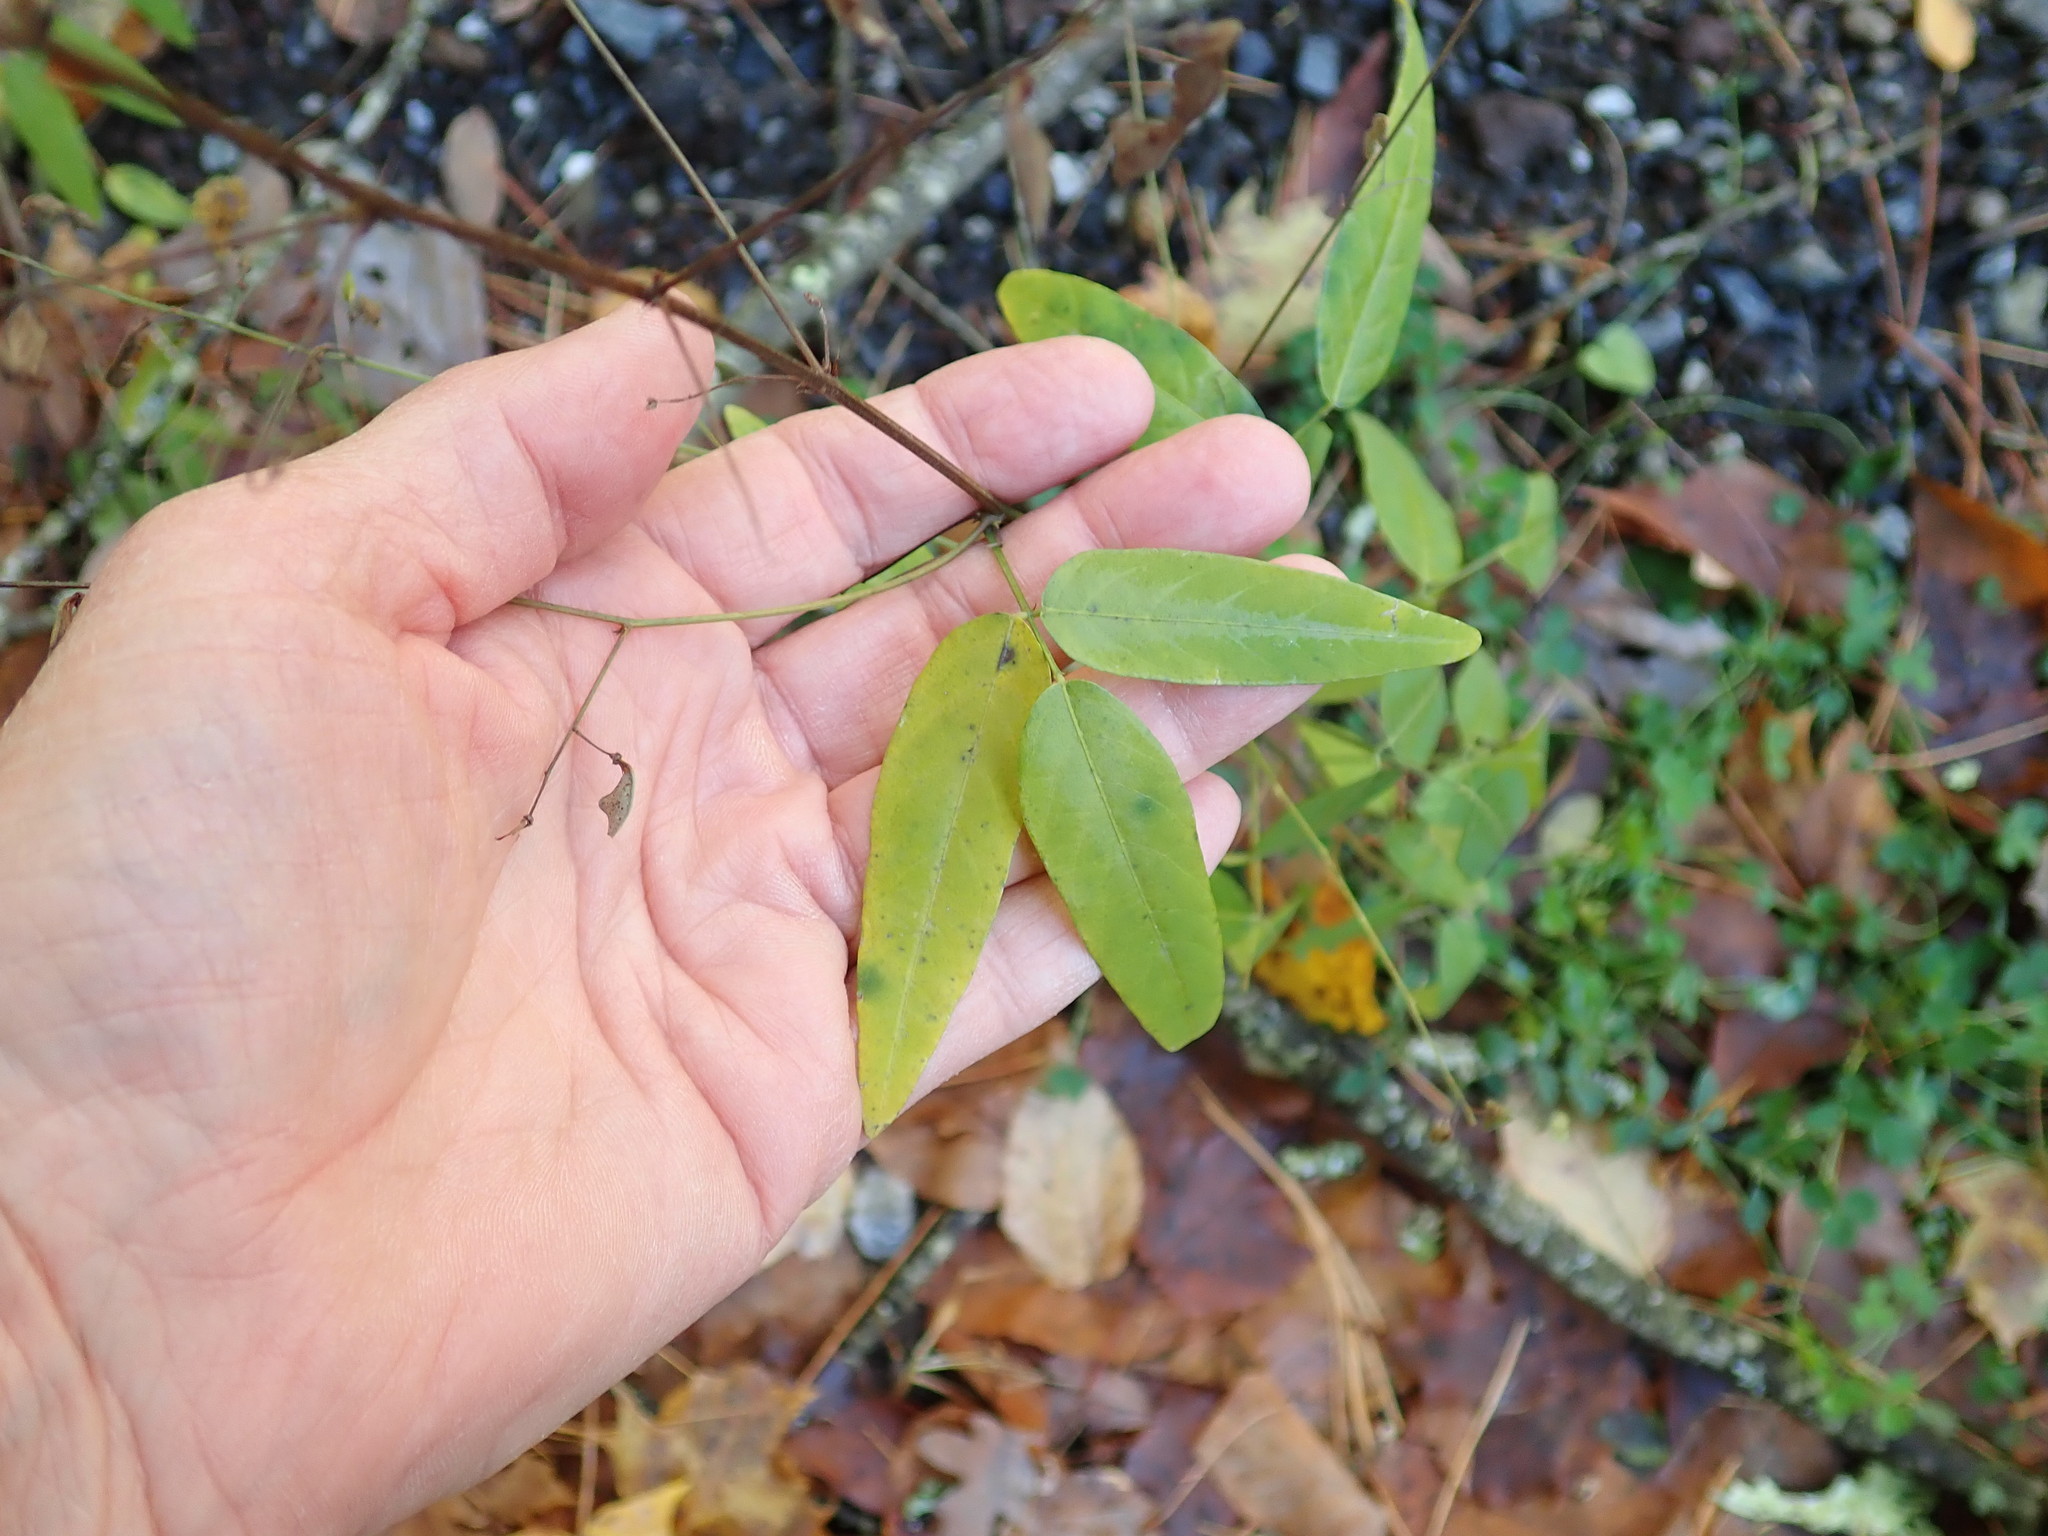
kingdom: Plantae
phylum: Tracheophyta
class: Magnoliopsida
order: Fabales
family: Fabaceae
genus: Desmodium
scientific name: Desmodium paniculatum
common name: Panicled tick-clover
